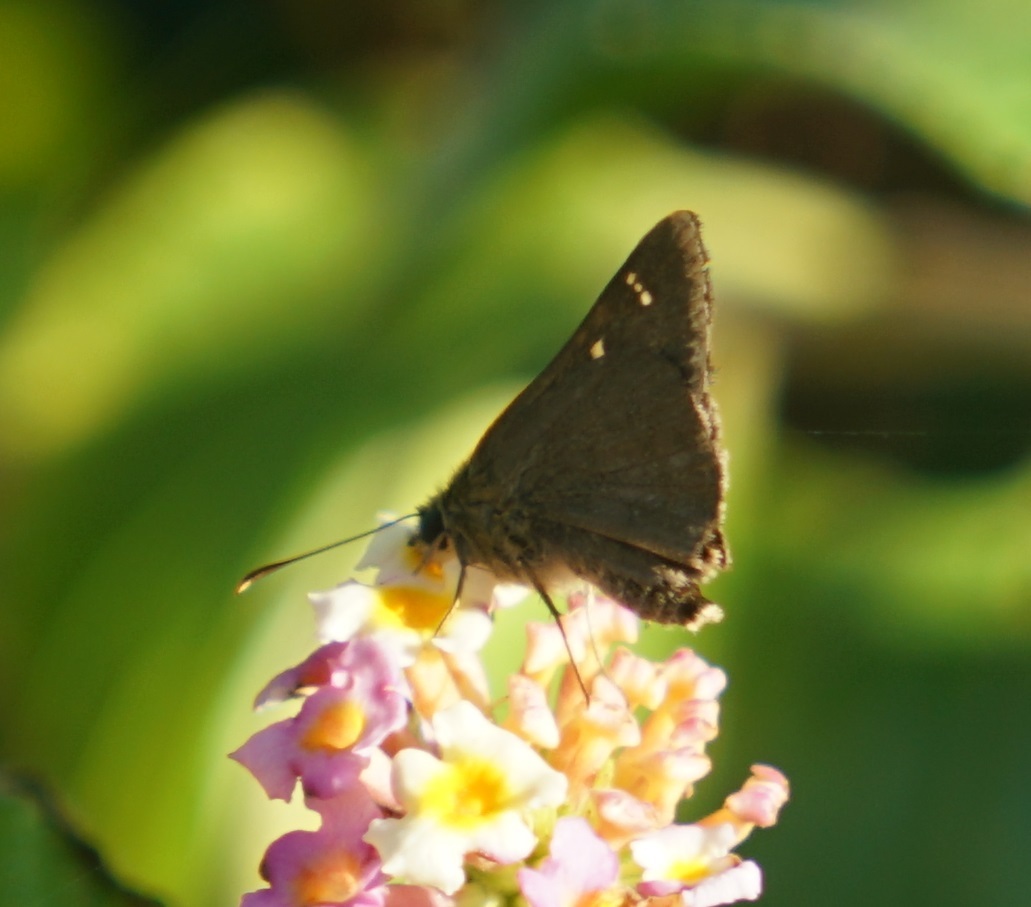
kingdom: Animalia
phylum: Arthropoda
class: Insecta
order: Lepidoptera
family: Hesperiidae
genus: Toxidia
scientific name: Toxidia
